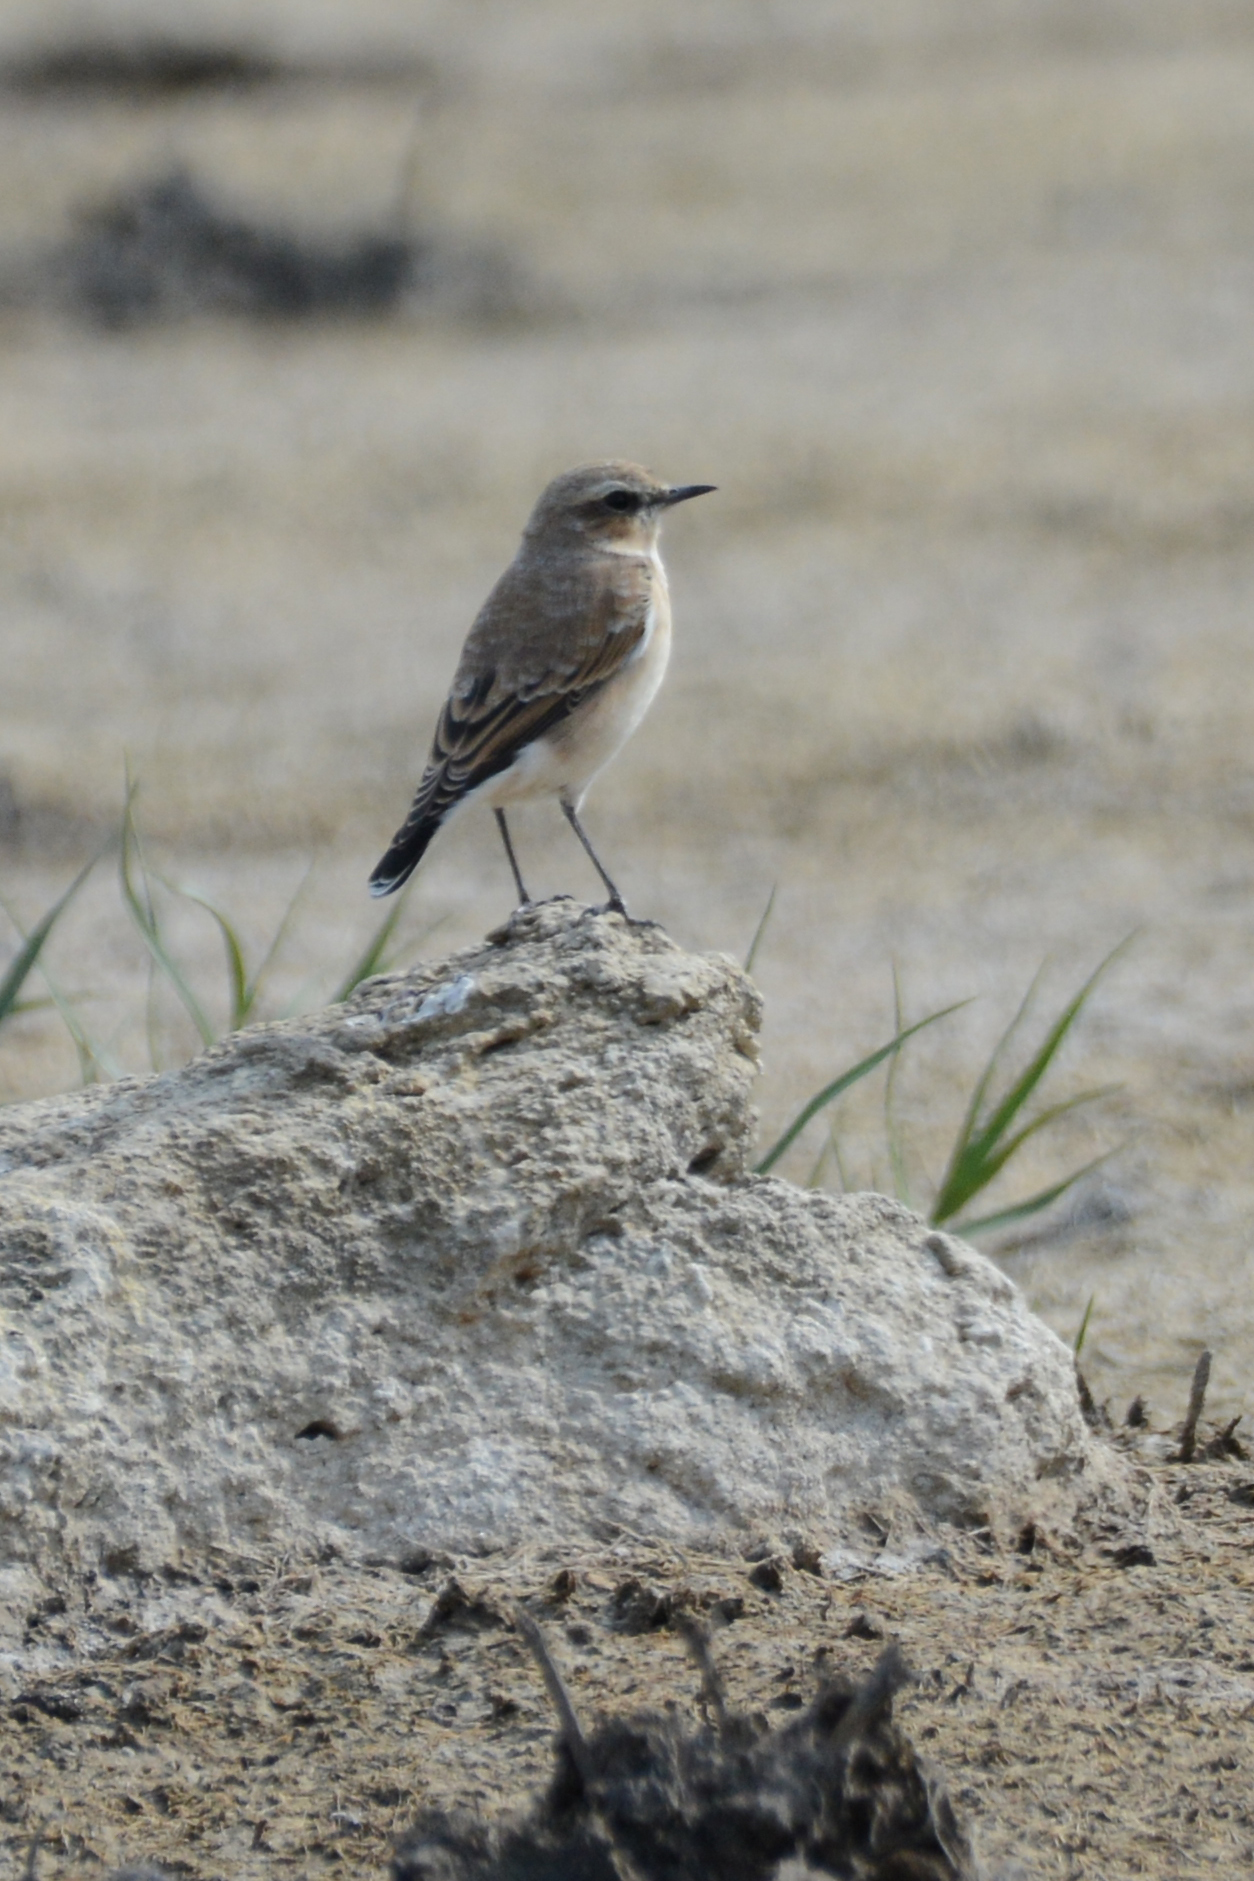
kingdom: Animalia
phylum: Chordata
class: Aves
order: Passeriformes
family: Muscicapidae
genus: Oenanthe
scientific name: Oenanthe oenanthe
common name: Northern wheatear
